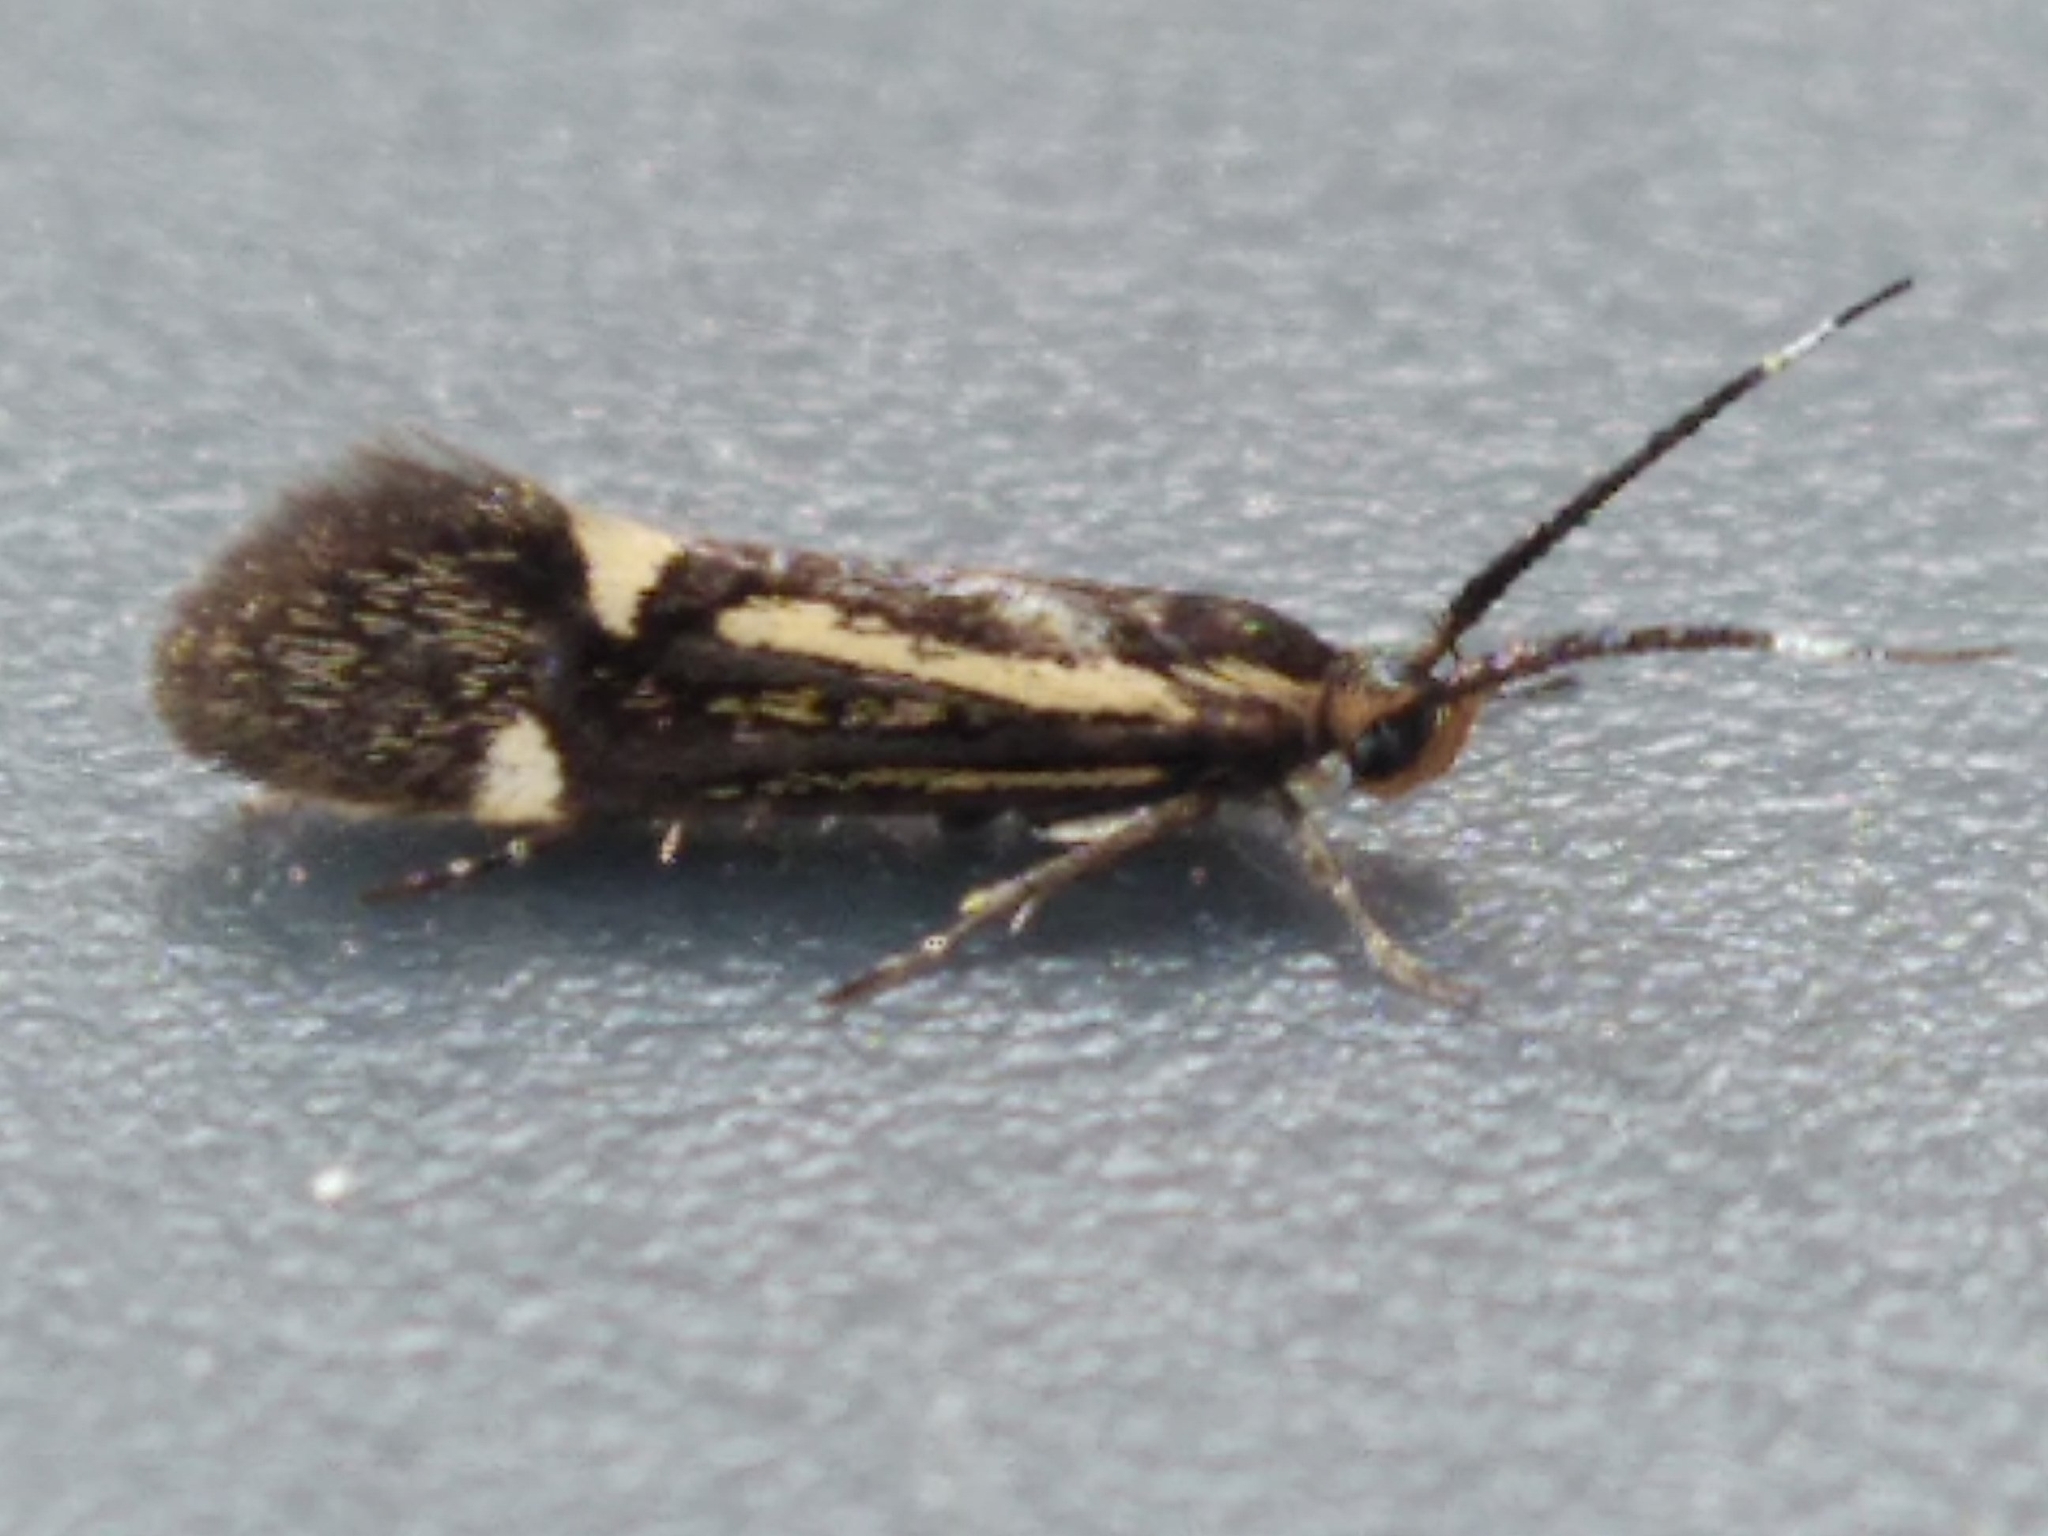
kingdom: Animalia
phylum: Arthropoda
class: Insecta
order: Lepidoptera
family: Oecophoridae
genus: Dafa
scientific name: Dafa Esperia sulphurella
